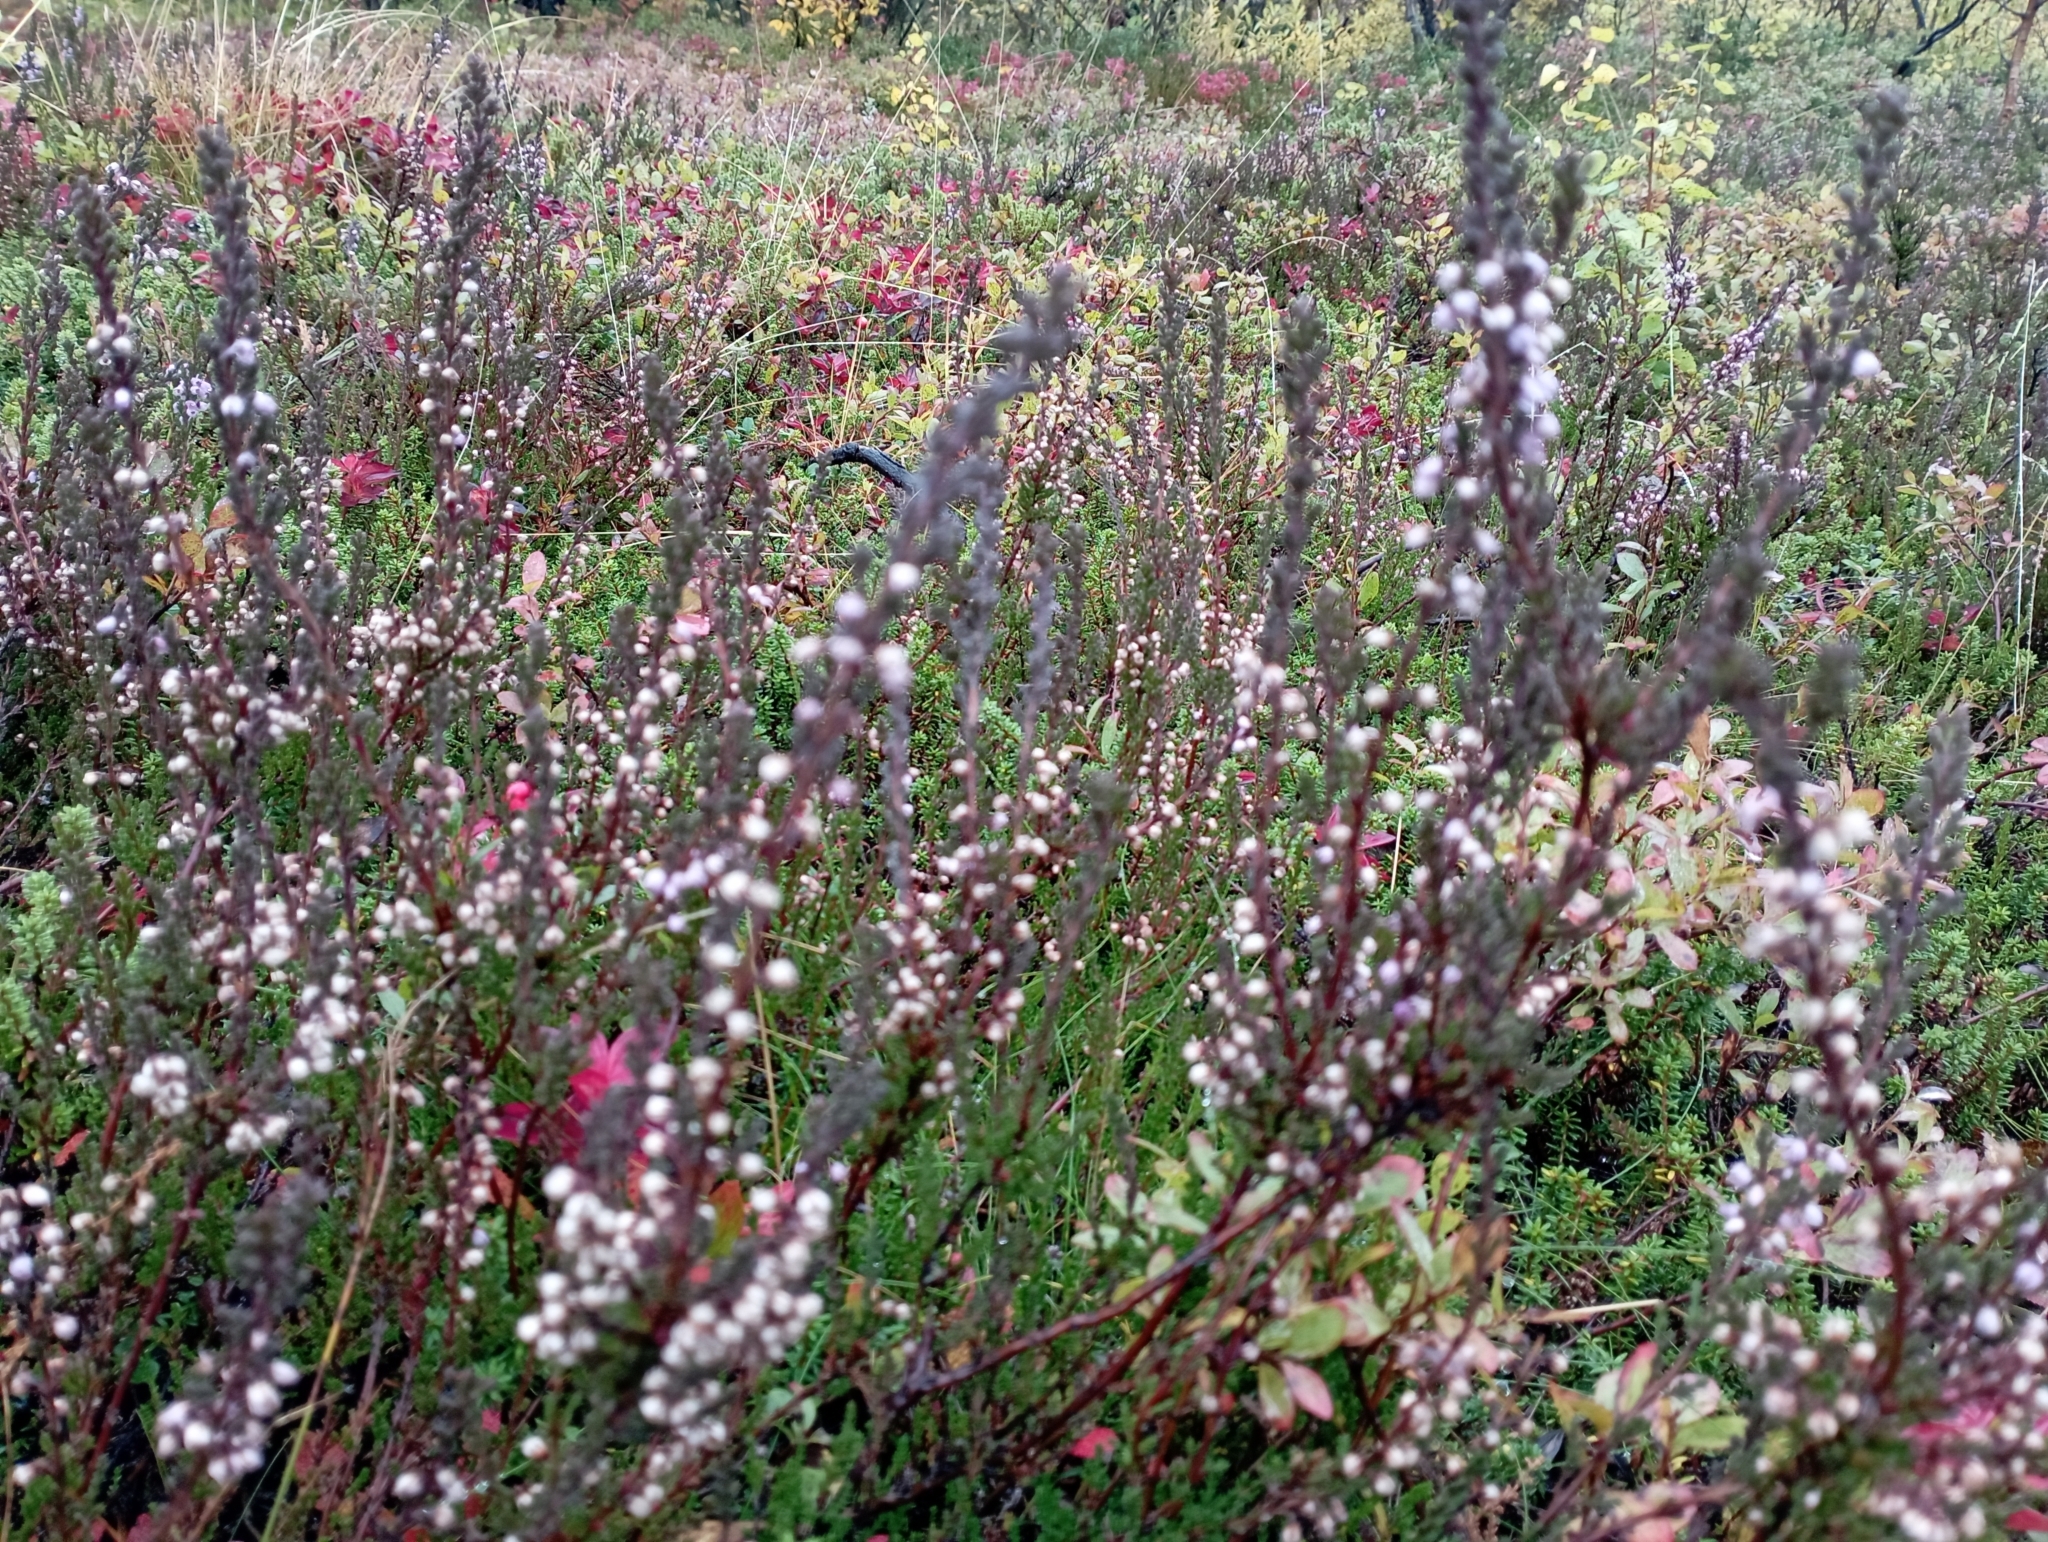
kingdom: Plantae
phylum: Tracheophyta
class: Magnoliopsida
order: Ericales
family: Ericaceae
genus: Calluna
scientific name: Calluna vulgaris
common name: Heather
